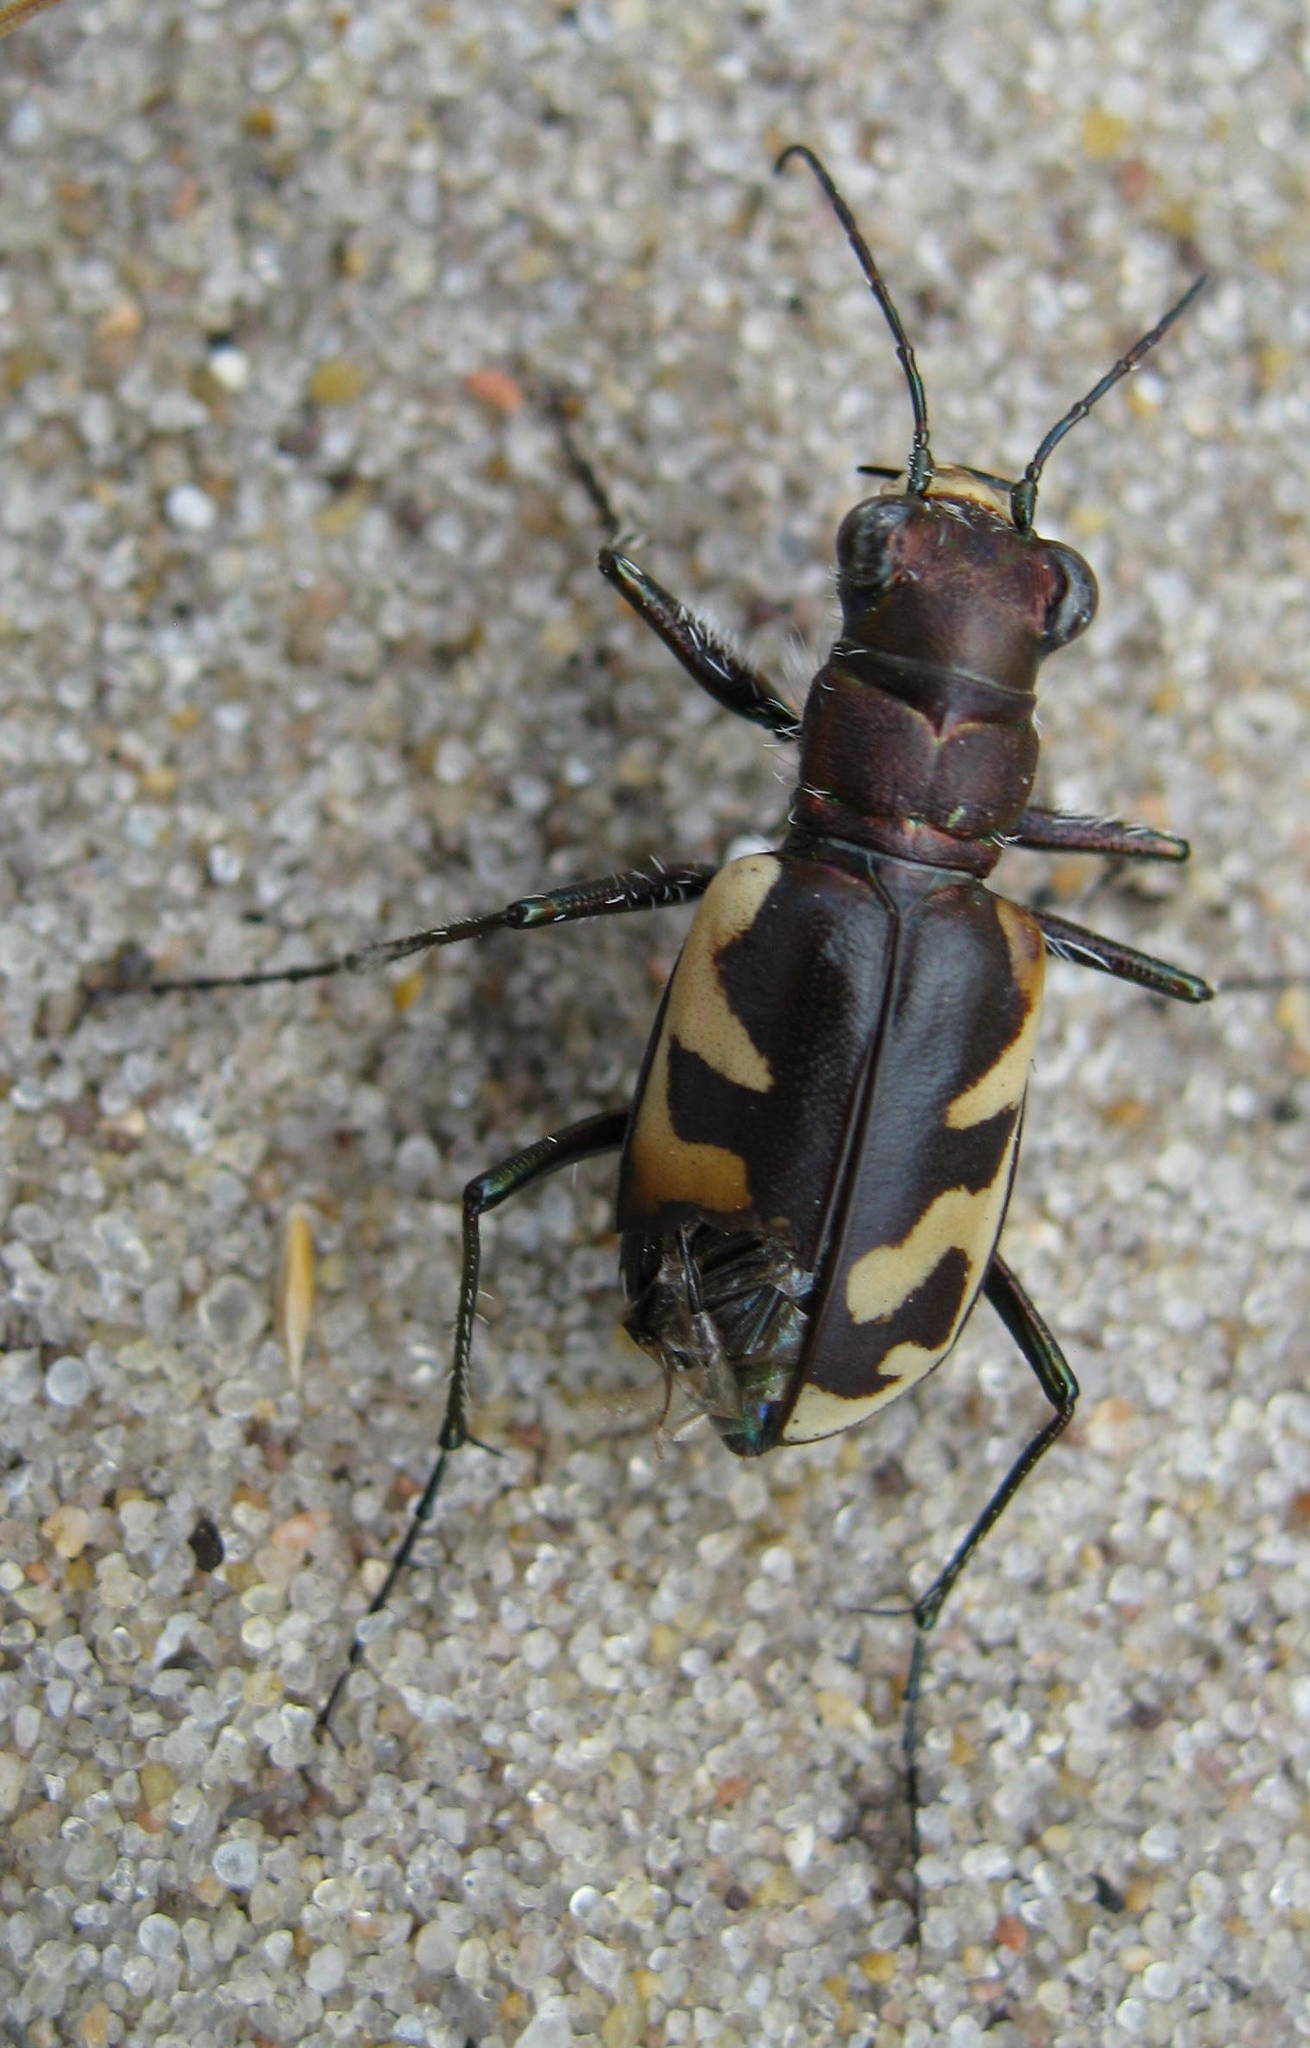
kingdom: Animalia
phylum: Arthropoda
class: Insecta
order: Coleoptera
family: Carabidae
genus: Cicindela
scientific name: Cicindela formosa
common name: Big sand tiger beetle
